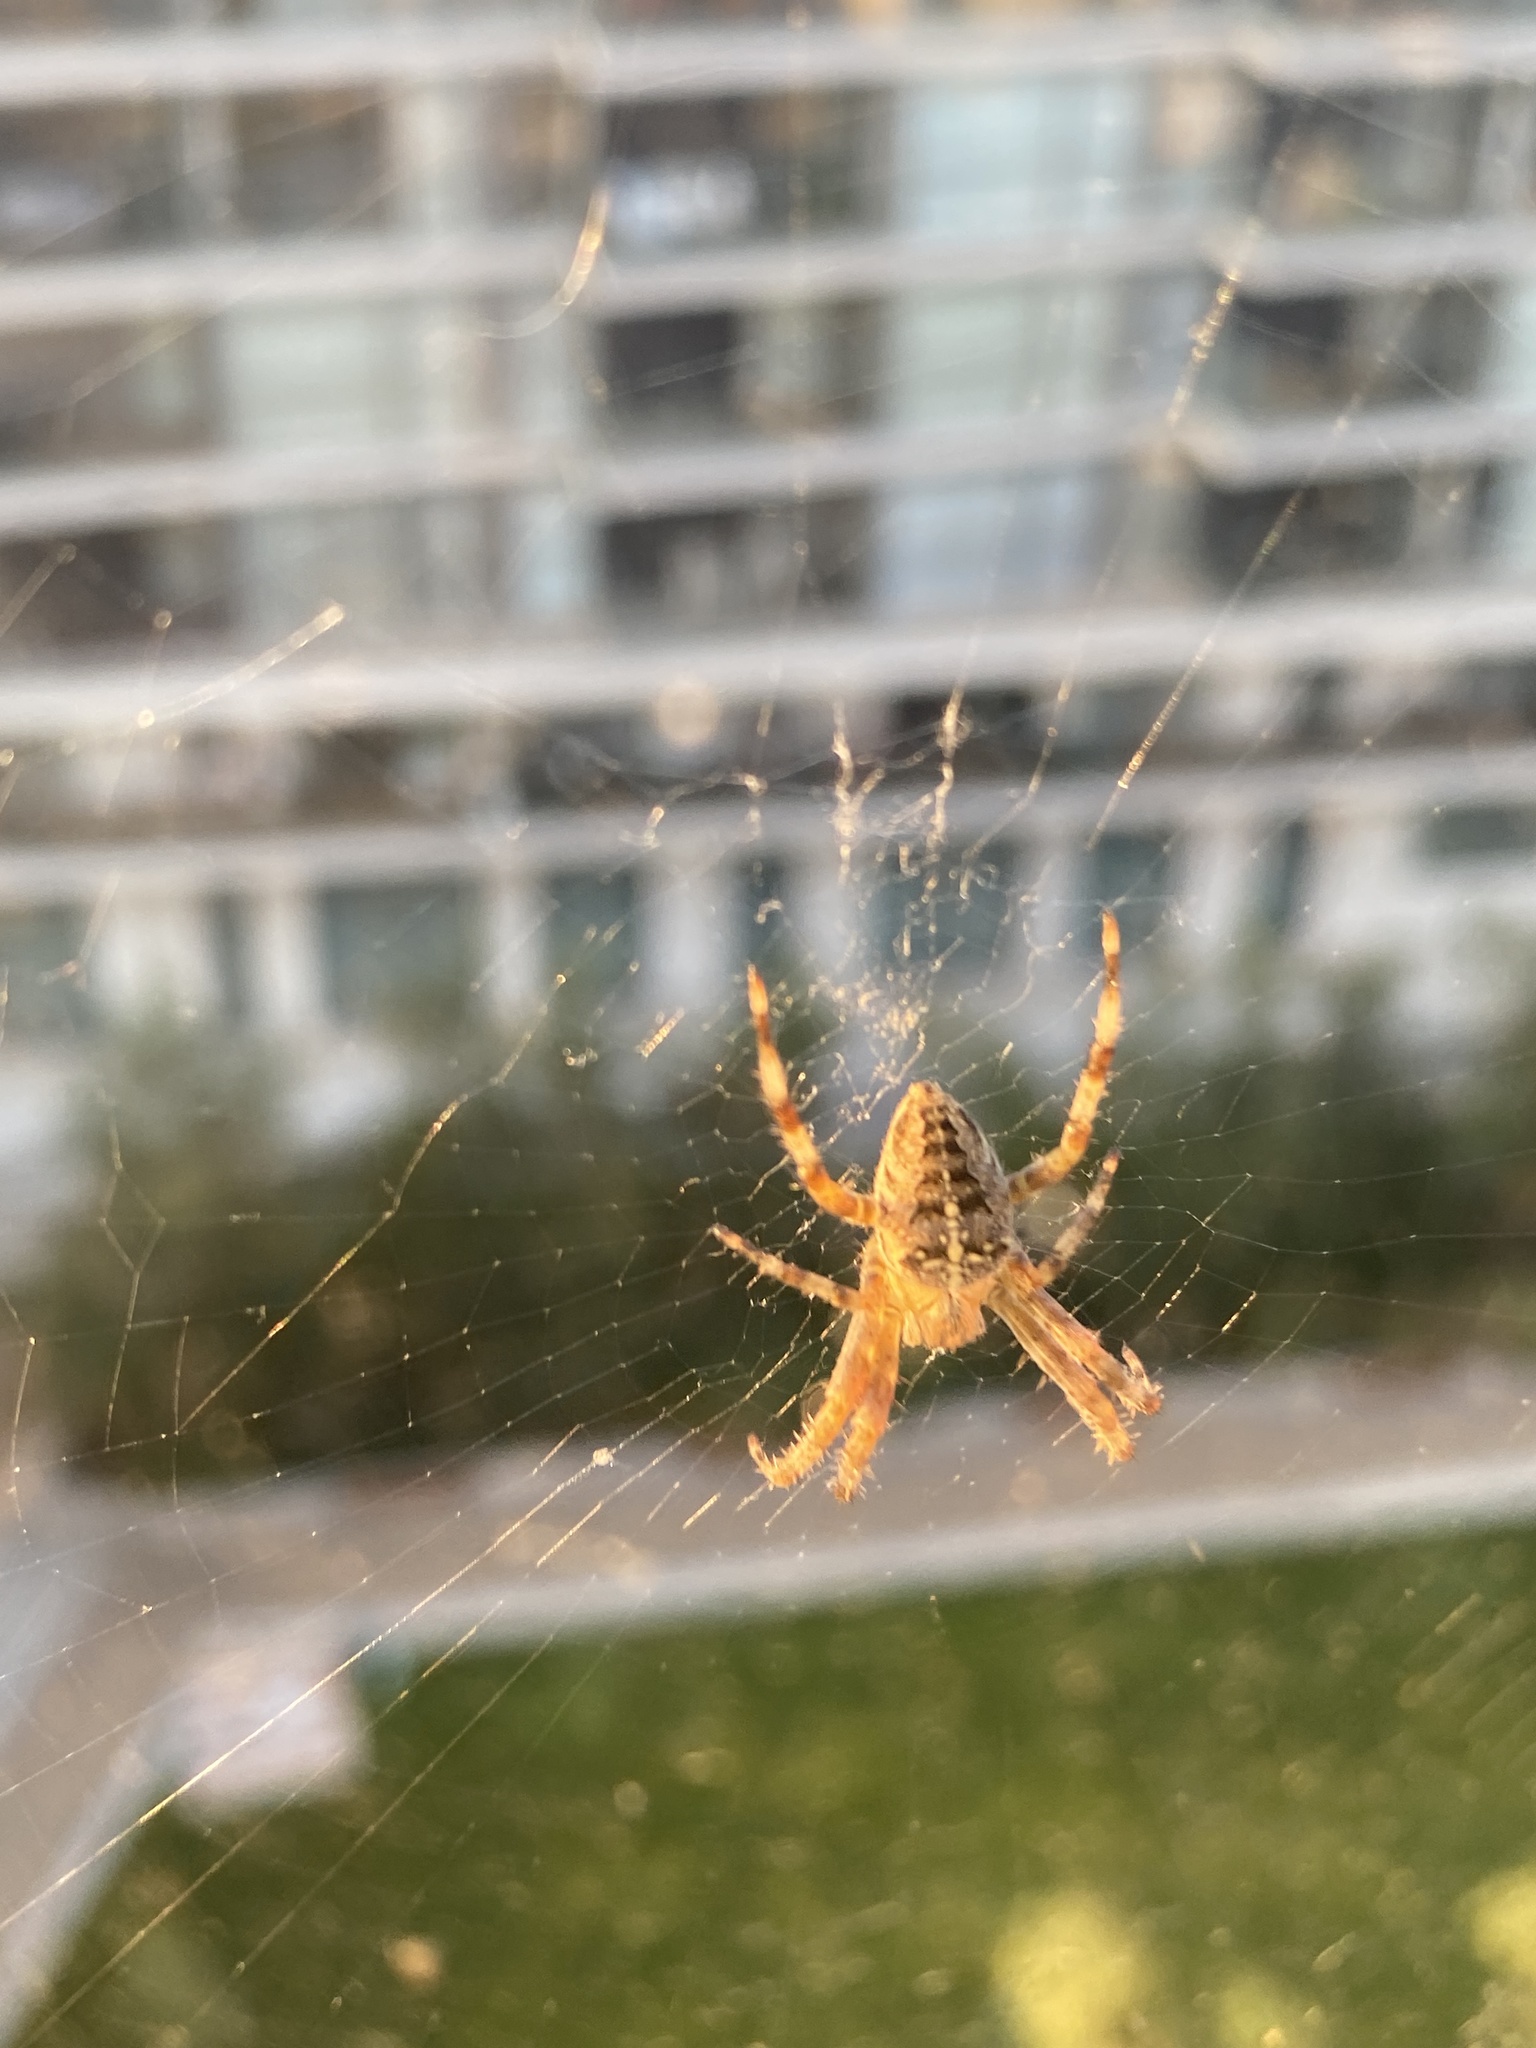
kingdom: Animalia
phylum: Arthropoda
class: Arachnida
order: Araneae
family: Araneidae
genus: Araneus
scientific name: Araneus diadematus
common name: Cross orbweaver
